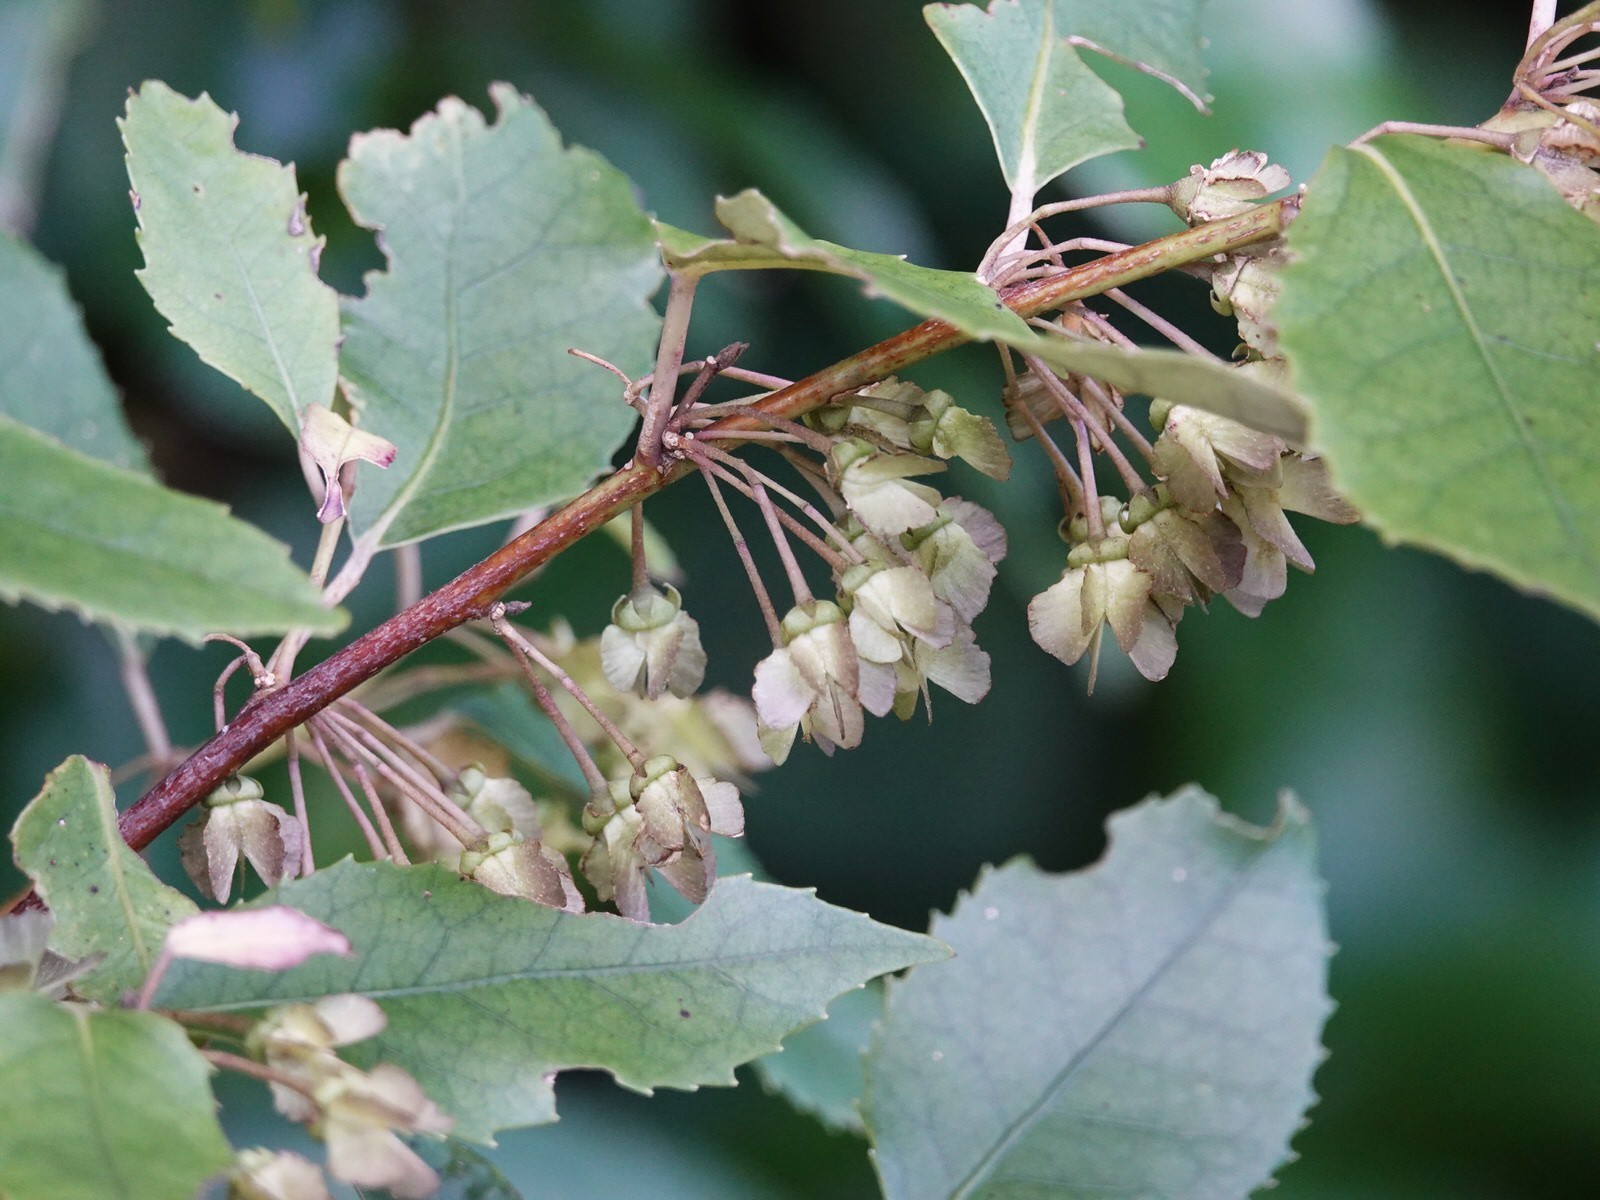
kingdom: Plantae
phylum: Tracheophyta
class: Magnoliopsida
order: Malvales
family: Malvaceae
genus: Hoheria
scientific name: Hoheria populnea
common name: Lacebark
